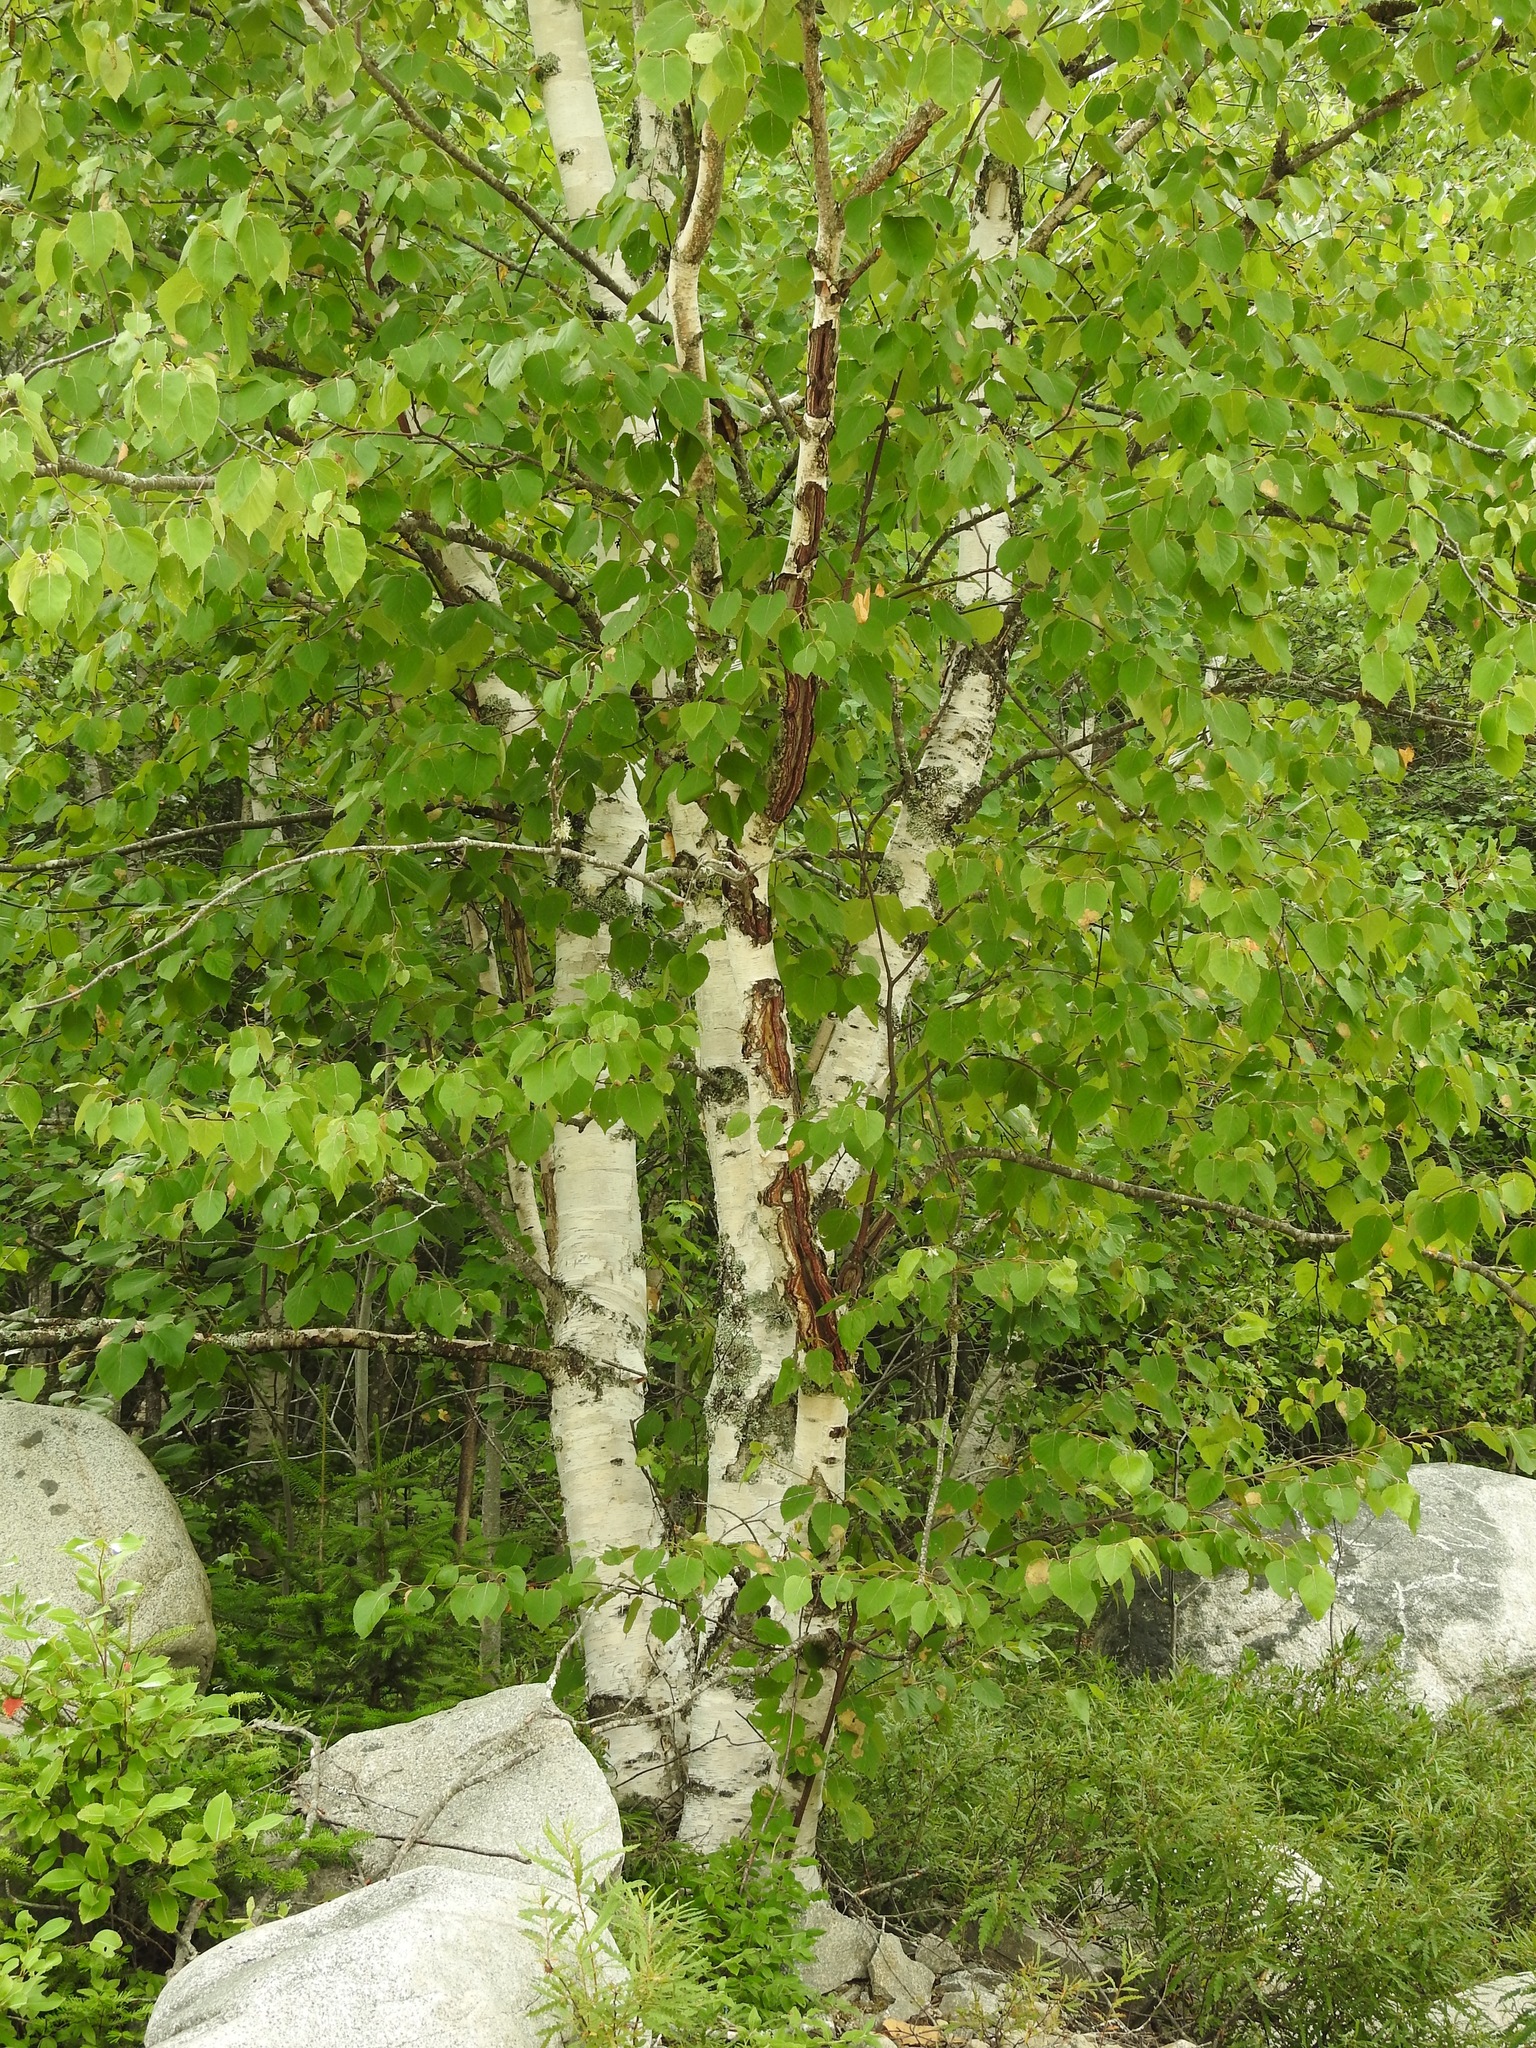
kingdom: Animalia
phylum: Arthropoda
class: Insecta
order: Hymenoptera
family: Tenthredinidae
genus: Fenusella
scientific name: Fenusella nana
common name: Early birch leaf edgeminer
